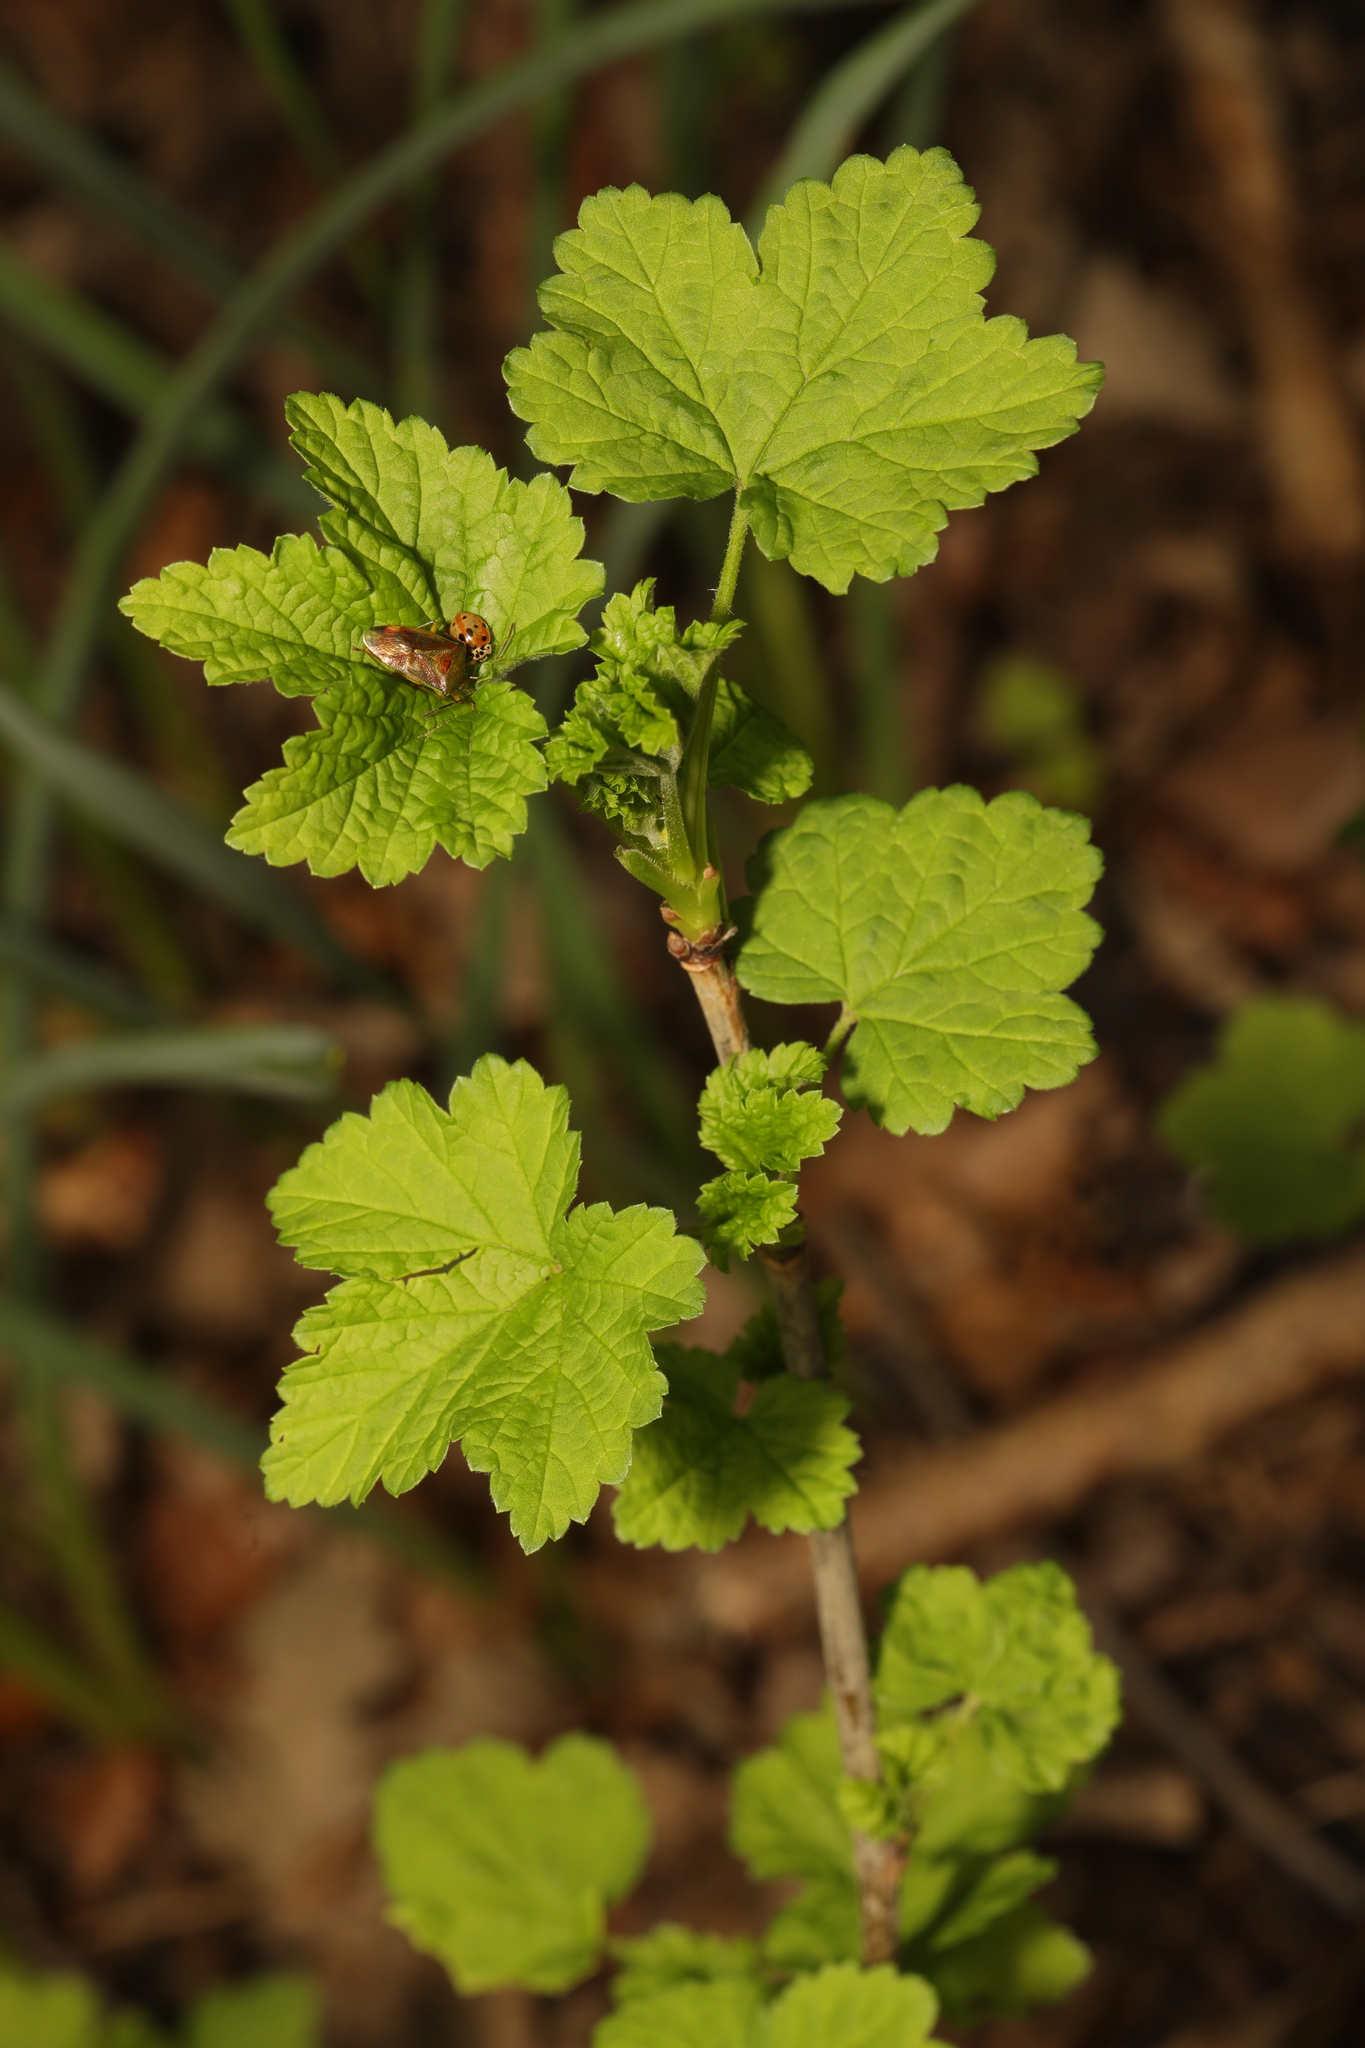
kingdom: Plantae
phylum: Tracheophyta
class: Magnoliopsida
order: Saxifragales
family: Grossulariaceae
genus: Ribes
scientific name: Ribes rubrum
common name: Red currant
